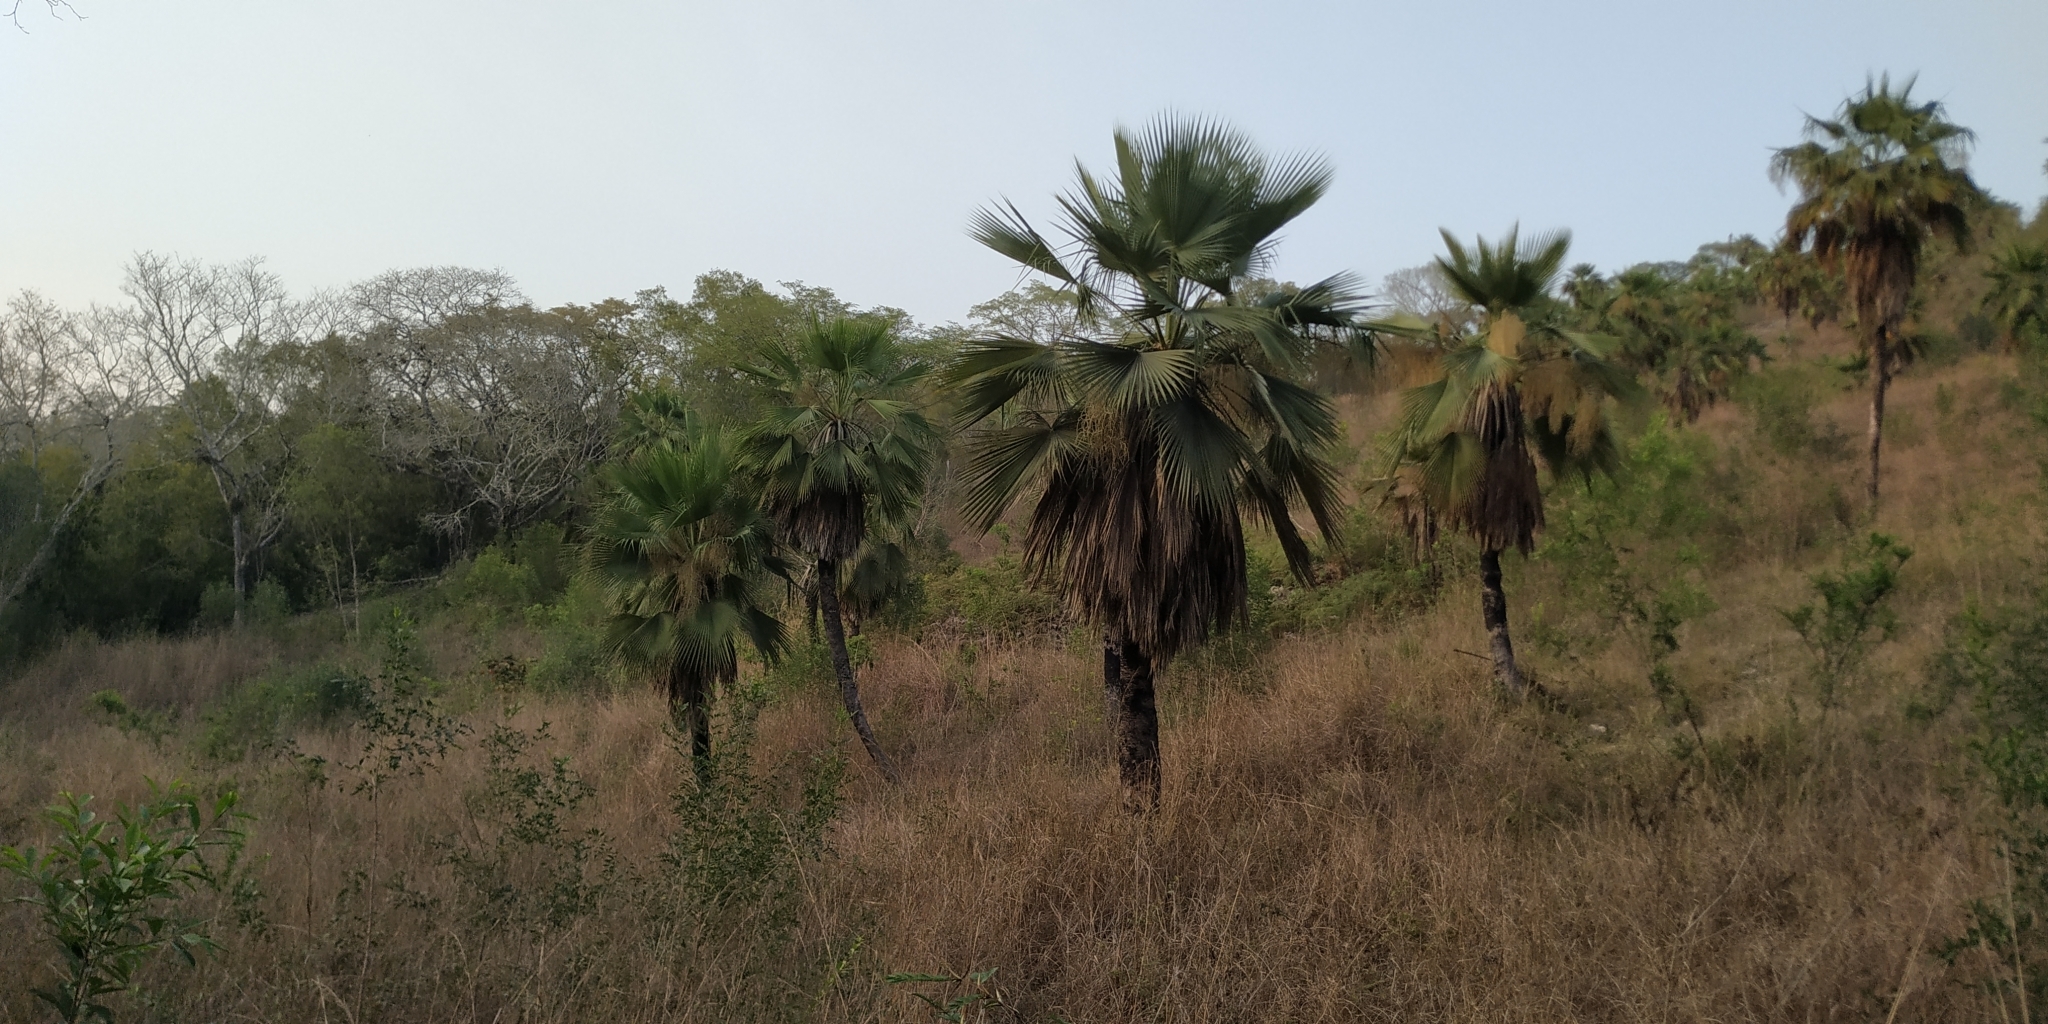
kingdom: Plantae
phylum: Tracheophyta
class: Liliopsida
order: Arecales
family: Arecaceae
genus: Brahea
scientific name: Brahea dulcis
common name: Apak palm
